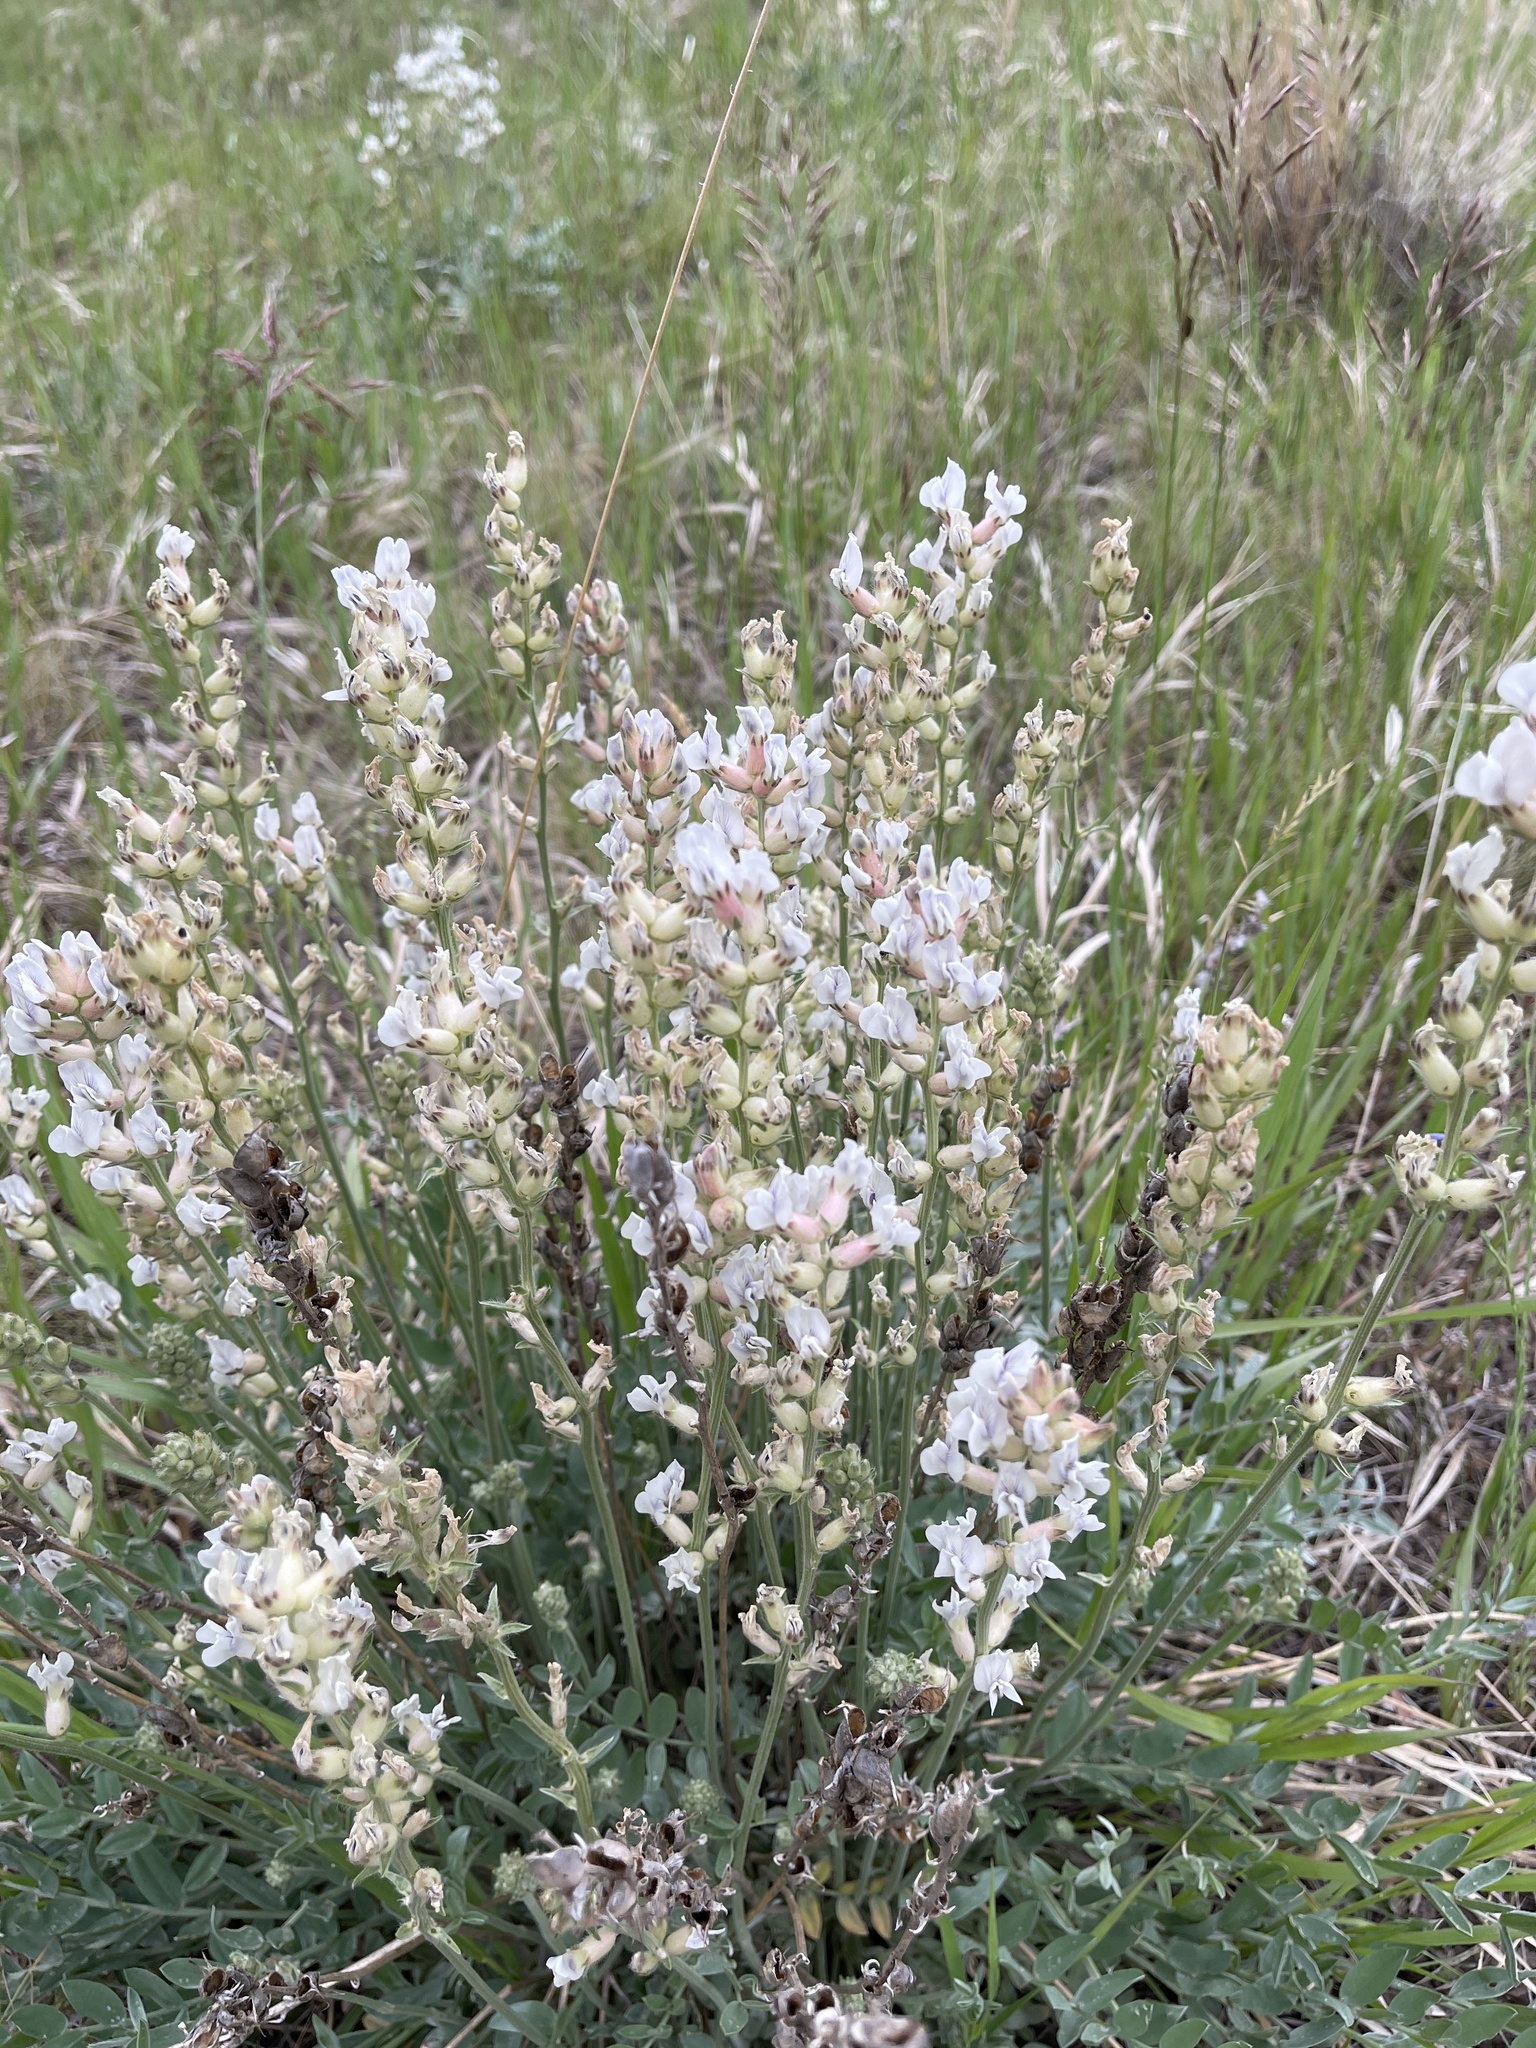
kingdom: Plantae
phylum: Tracheophyta
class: Magnoliopsida
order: Fabales
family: Fabaceae
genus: Oxytropis
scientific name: Oxytropis sericea
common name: Silky locoweed
